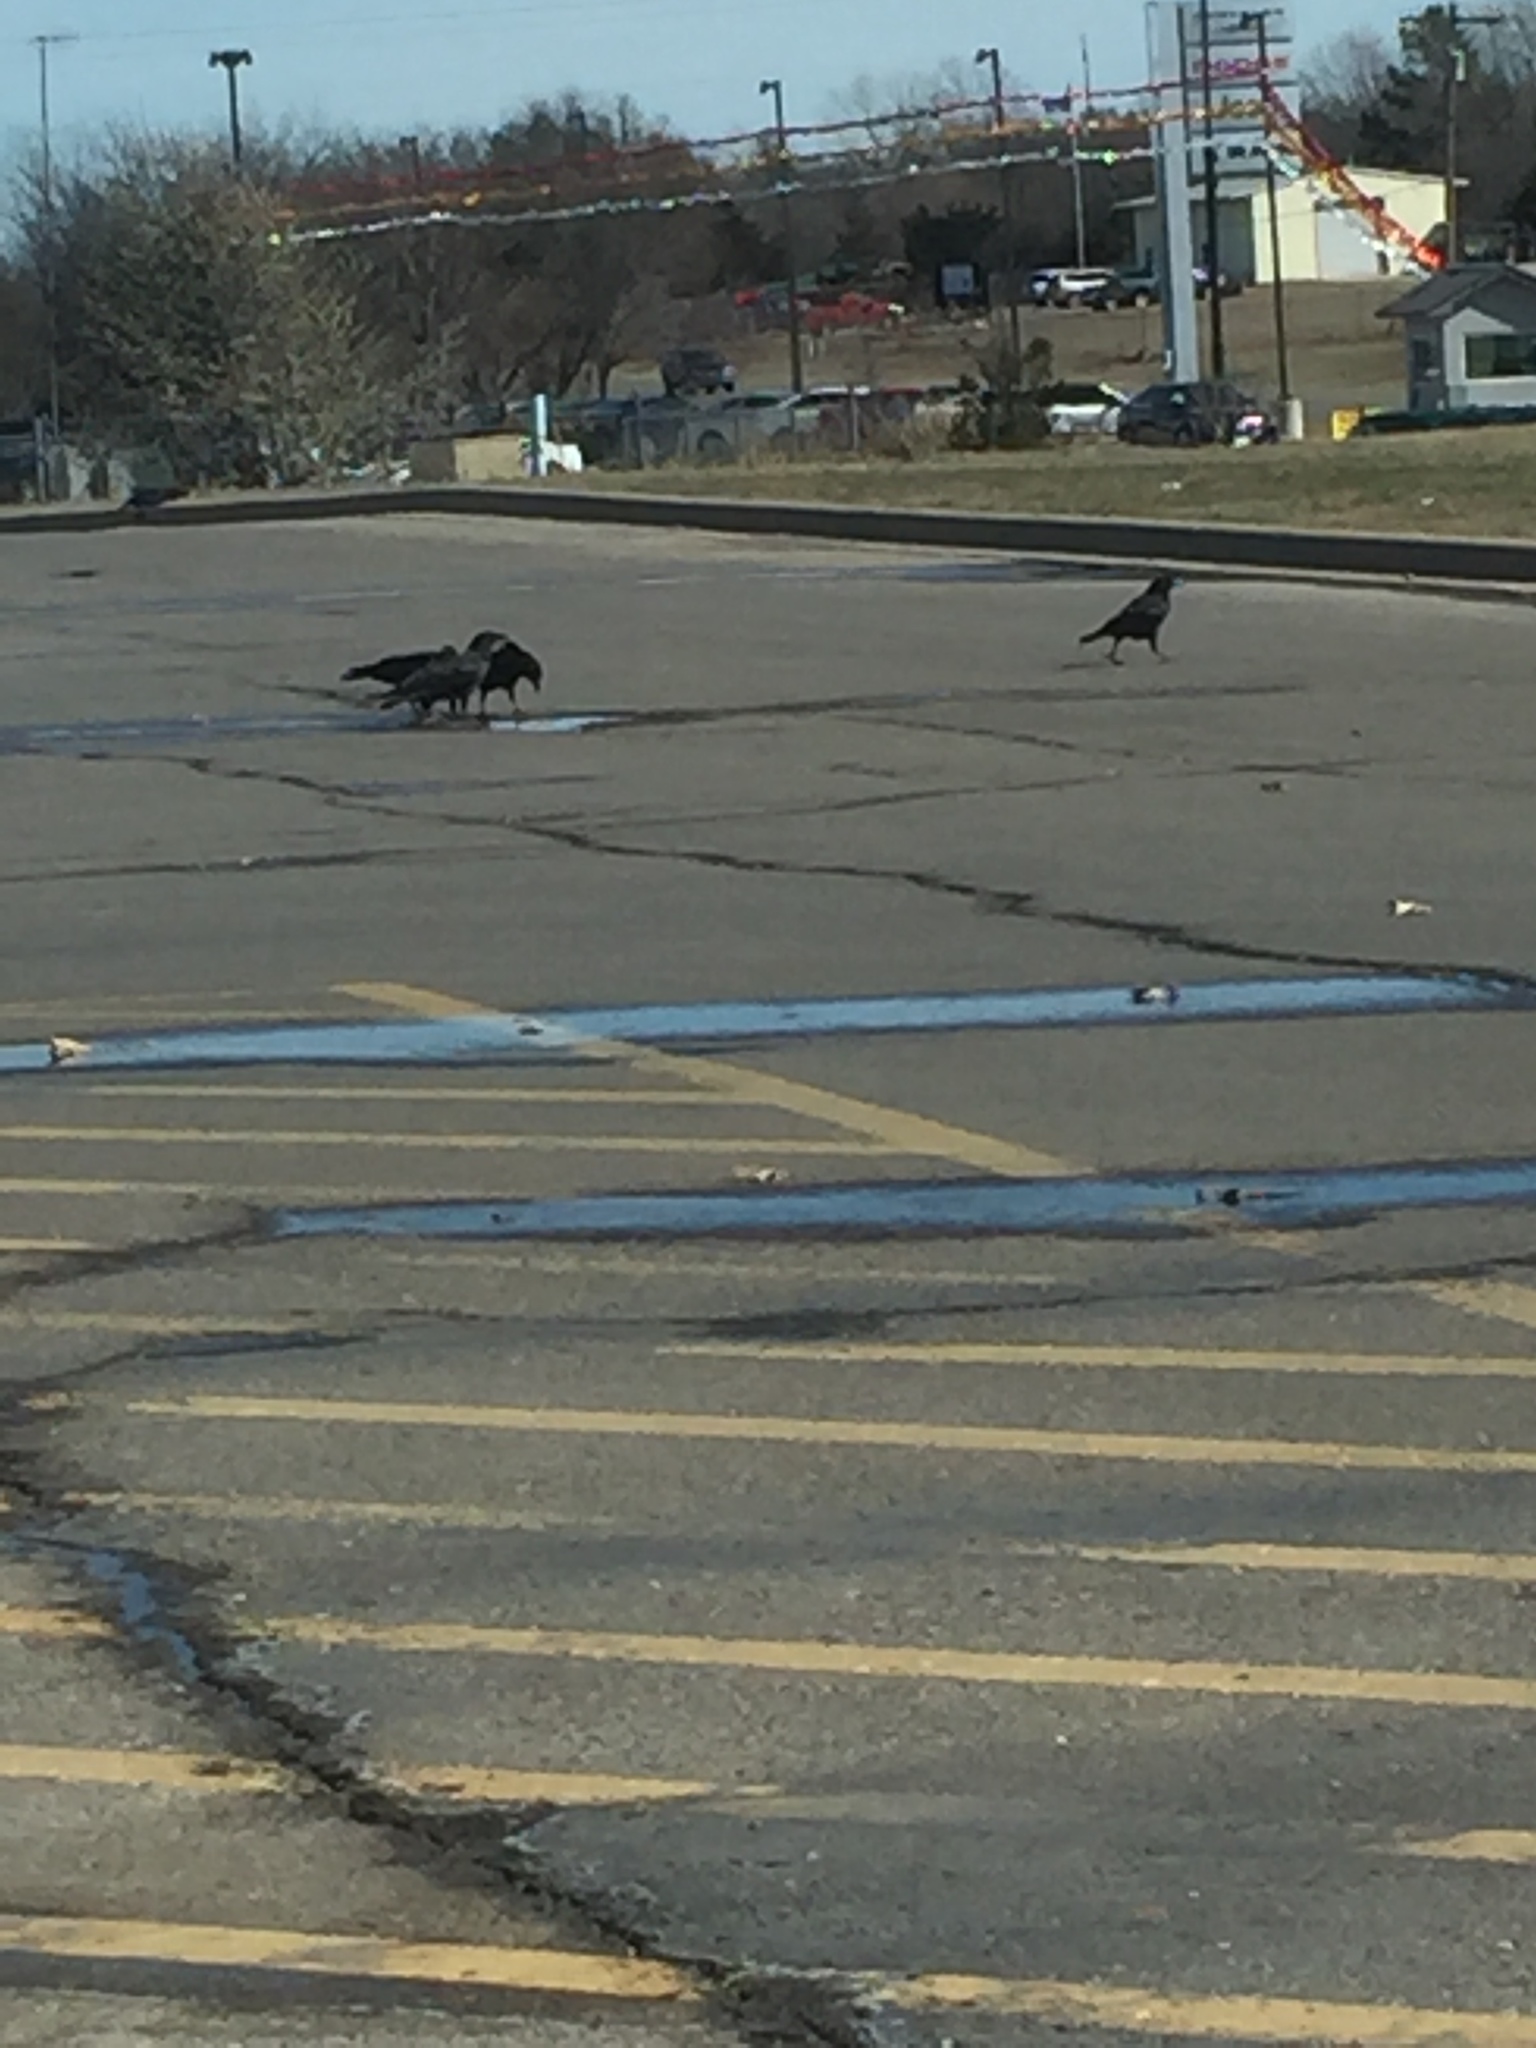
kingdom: Animalia
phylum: Chordata
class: Aves
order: Passeriformes
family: Corvidae
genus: Corvus
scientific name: Corvus brachyrhynchos
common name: American crow
